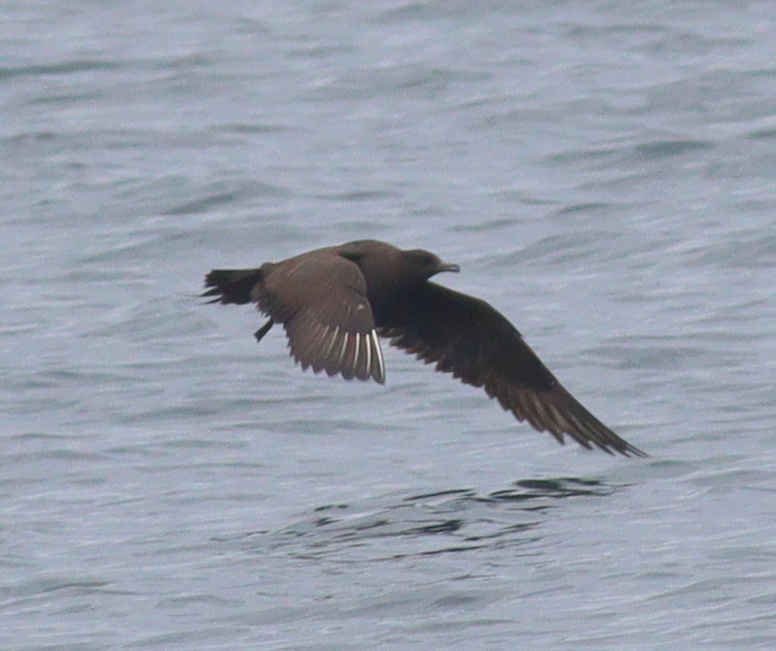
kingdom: Animalia
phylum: Chordata
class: Aves
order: Charadriiformes
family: Stercorariidae
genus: Stercorarius
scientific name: Stercorarius parasiticus
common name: Parasitic jaeger
